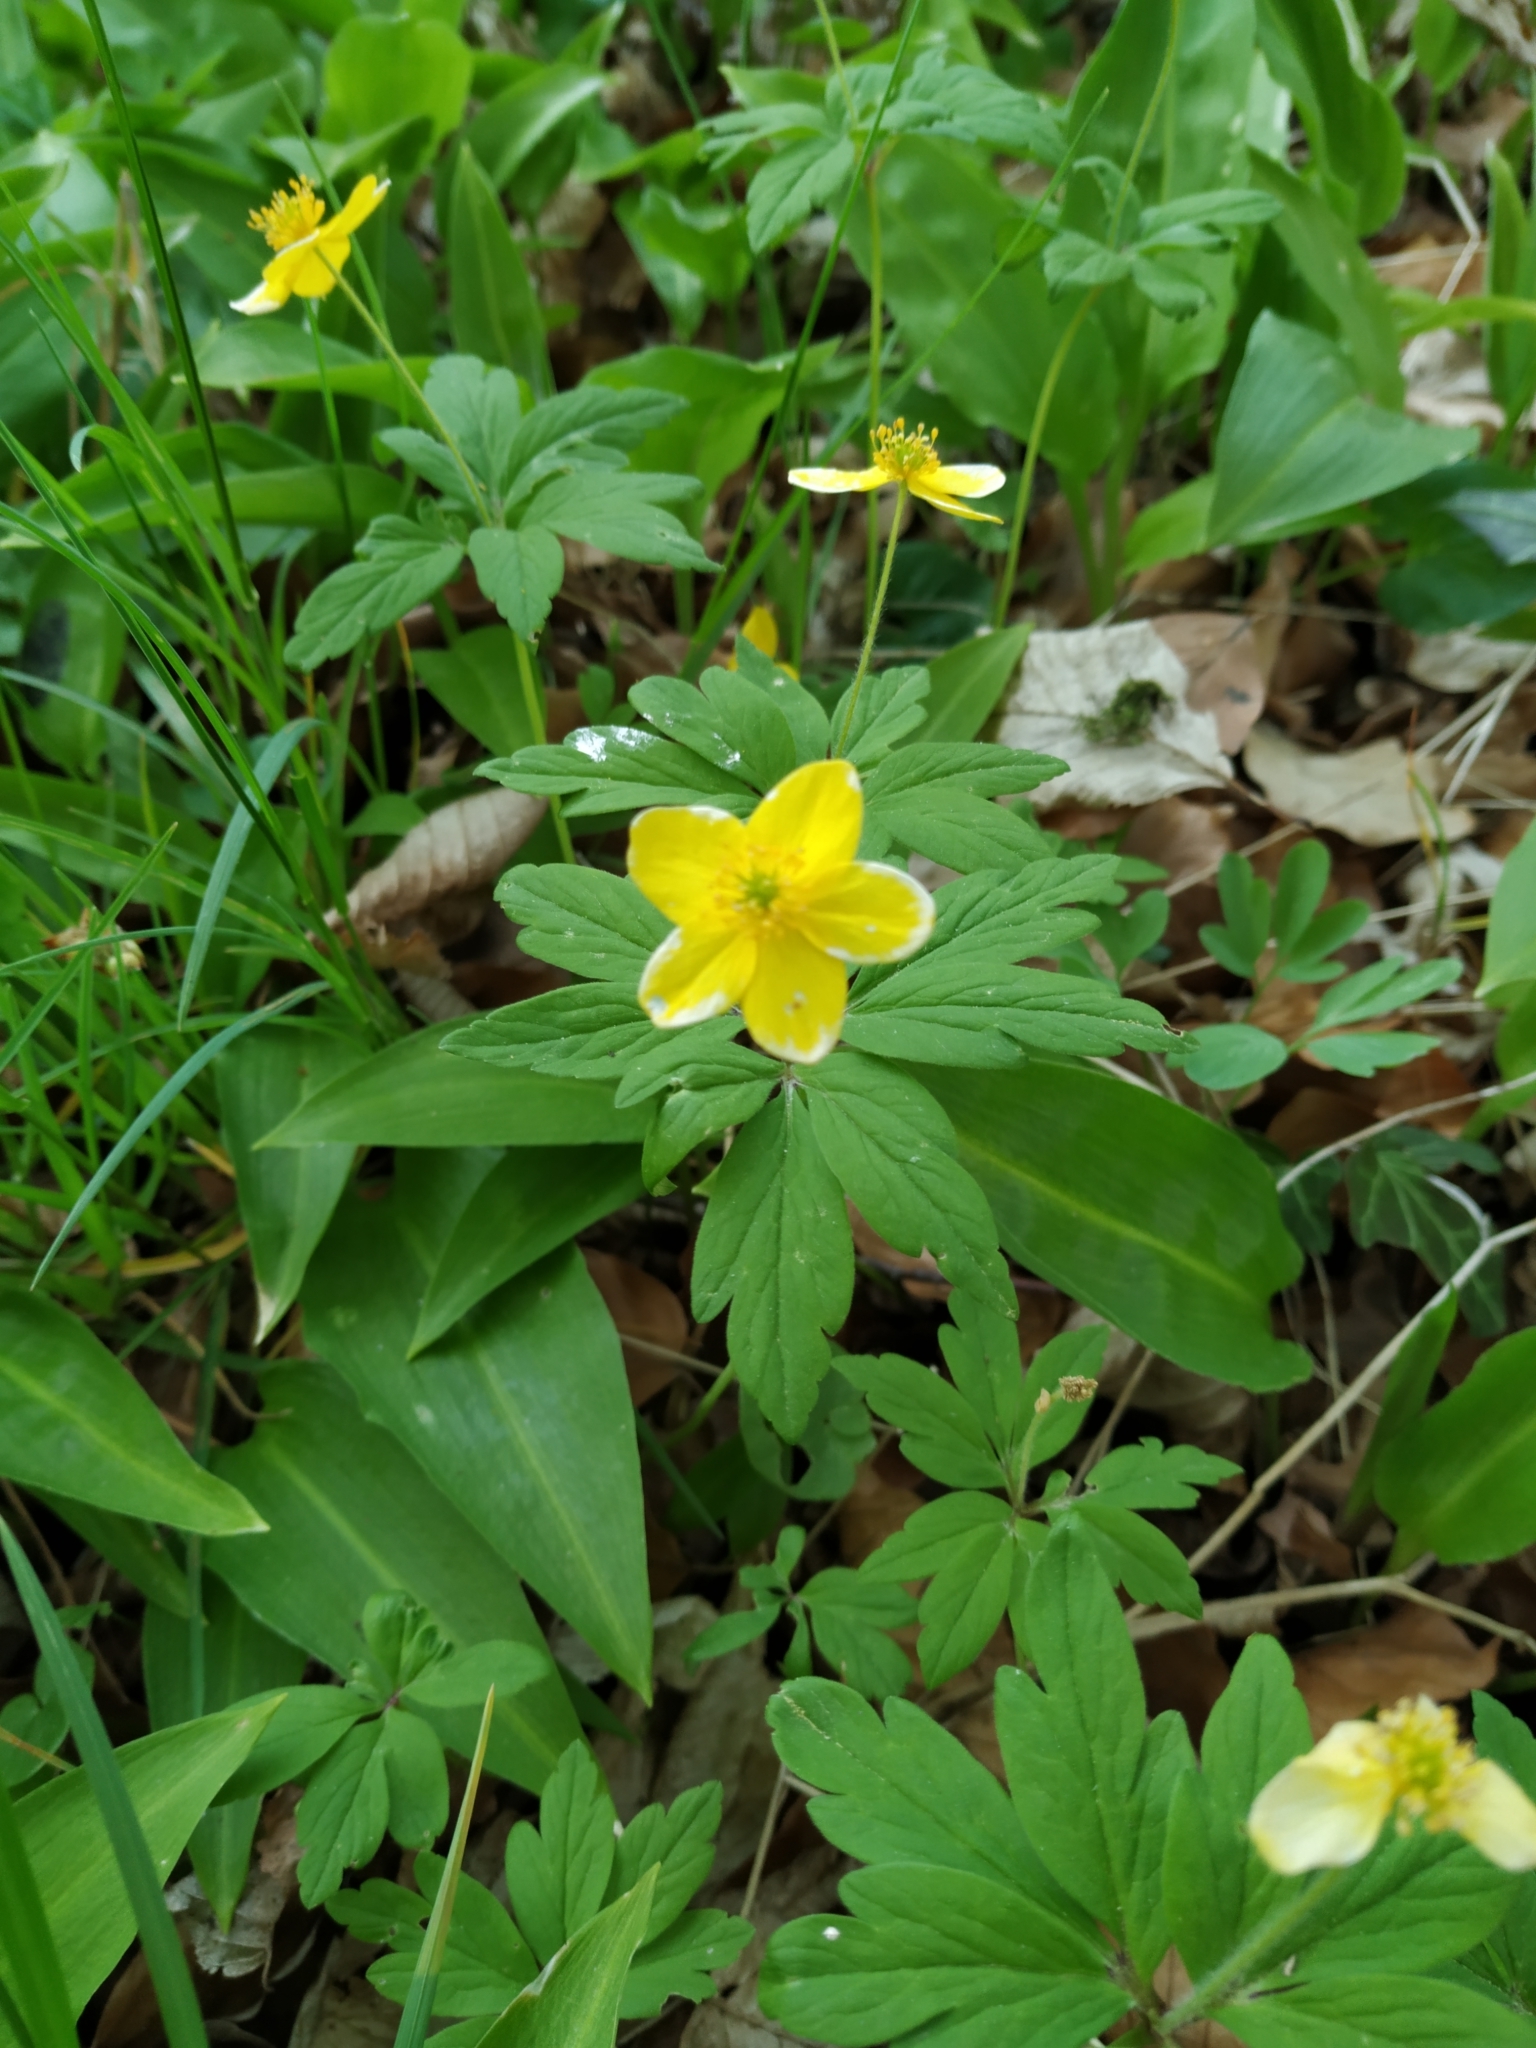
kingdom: Plantae
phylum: Tracheophyta
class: Magnoliopsida
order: Ranunculales
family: Ranunculaceae
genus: Anemone
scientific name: Anemone ranunculoides
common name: Yellow anemone
